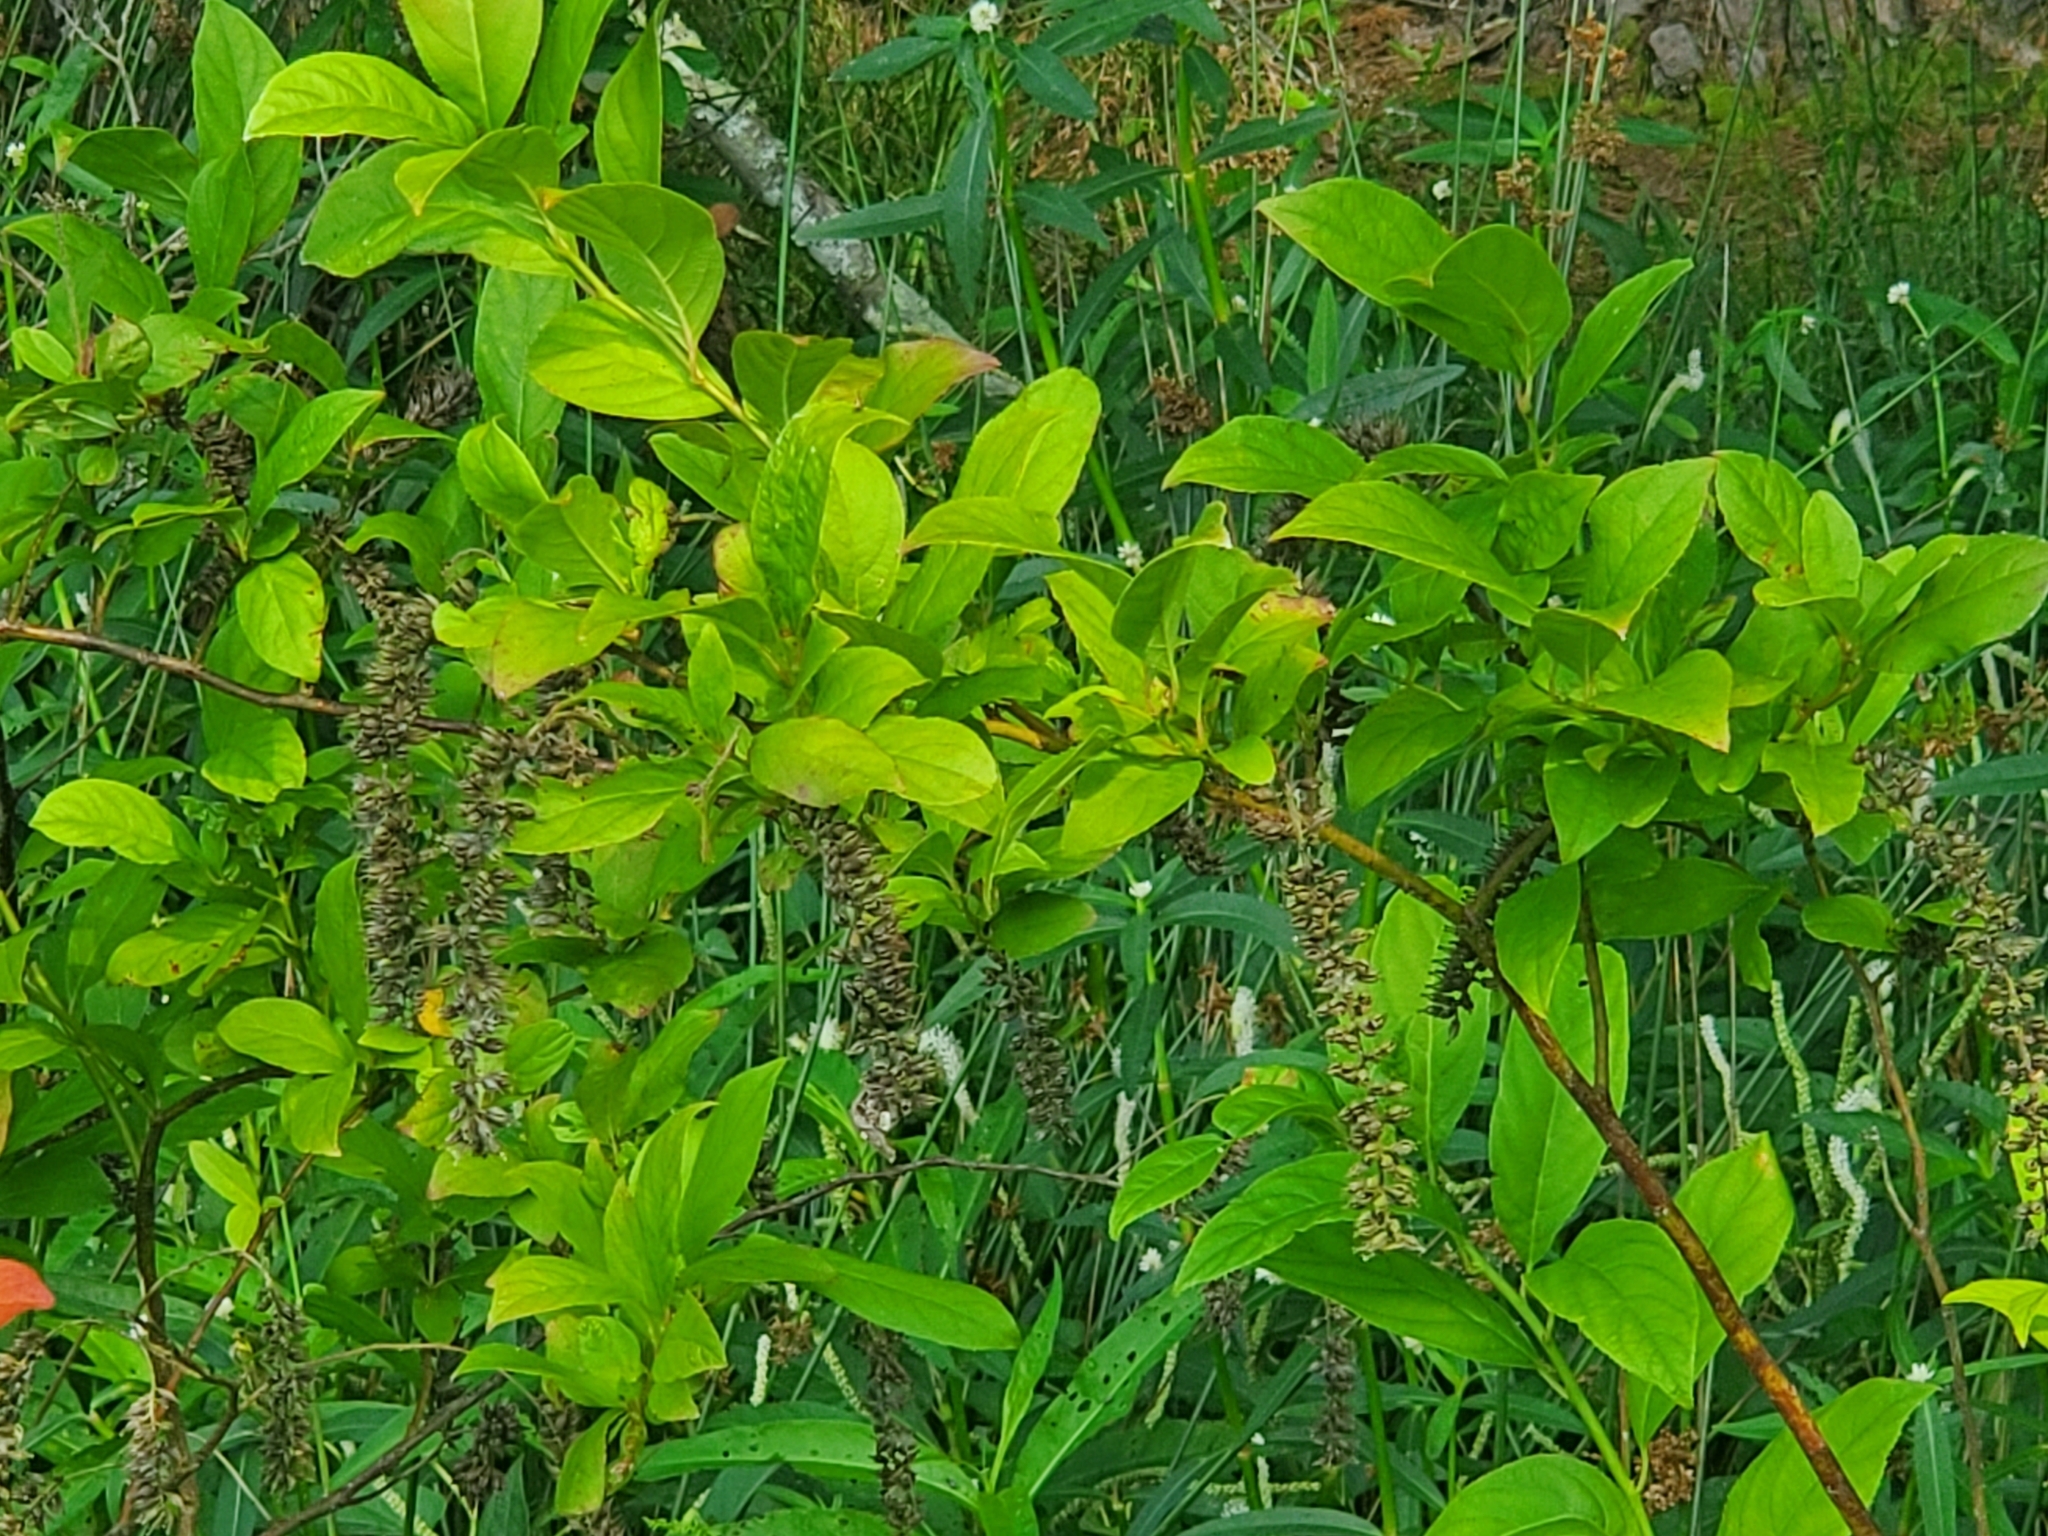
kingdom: Plantae
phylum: Tracheophyta
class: Magnoliopsida
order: Saxifragales
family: Iteaceae
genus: Itea
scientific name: Itea virginica
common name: Sweetspire
